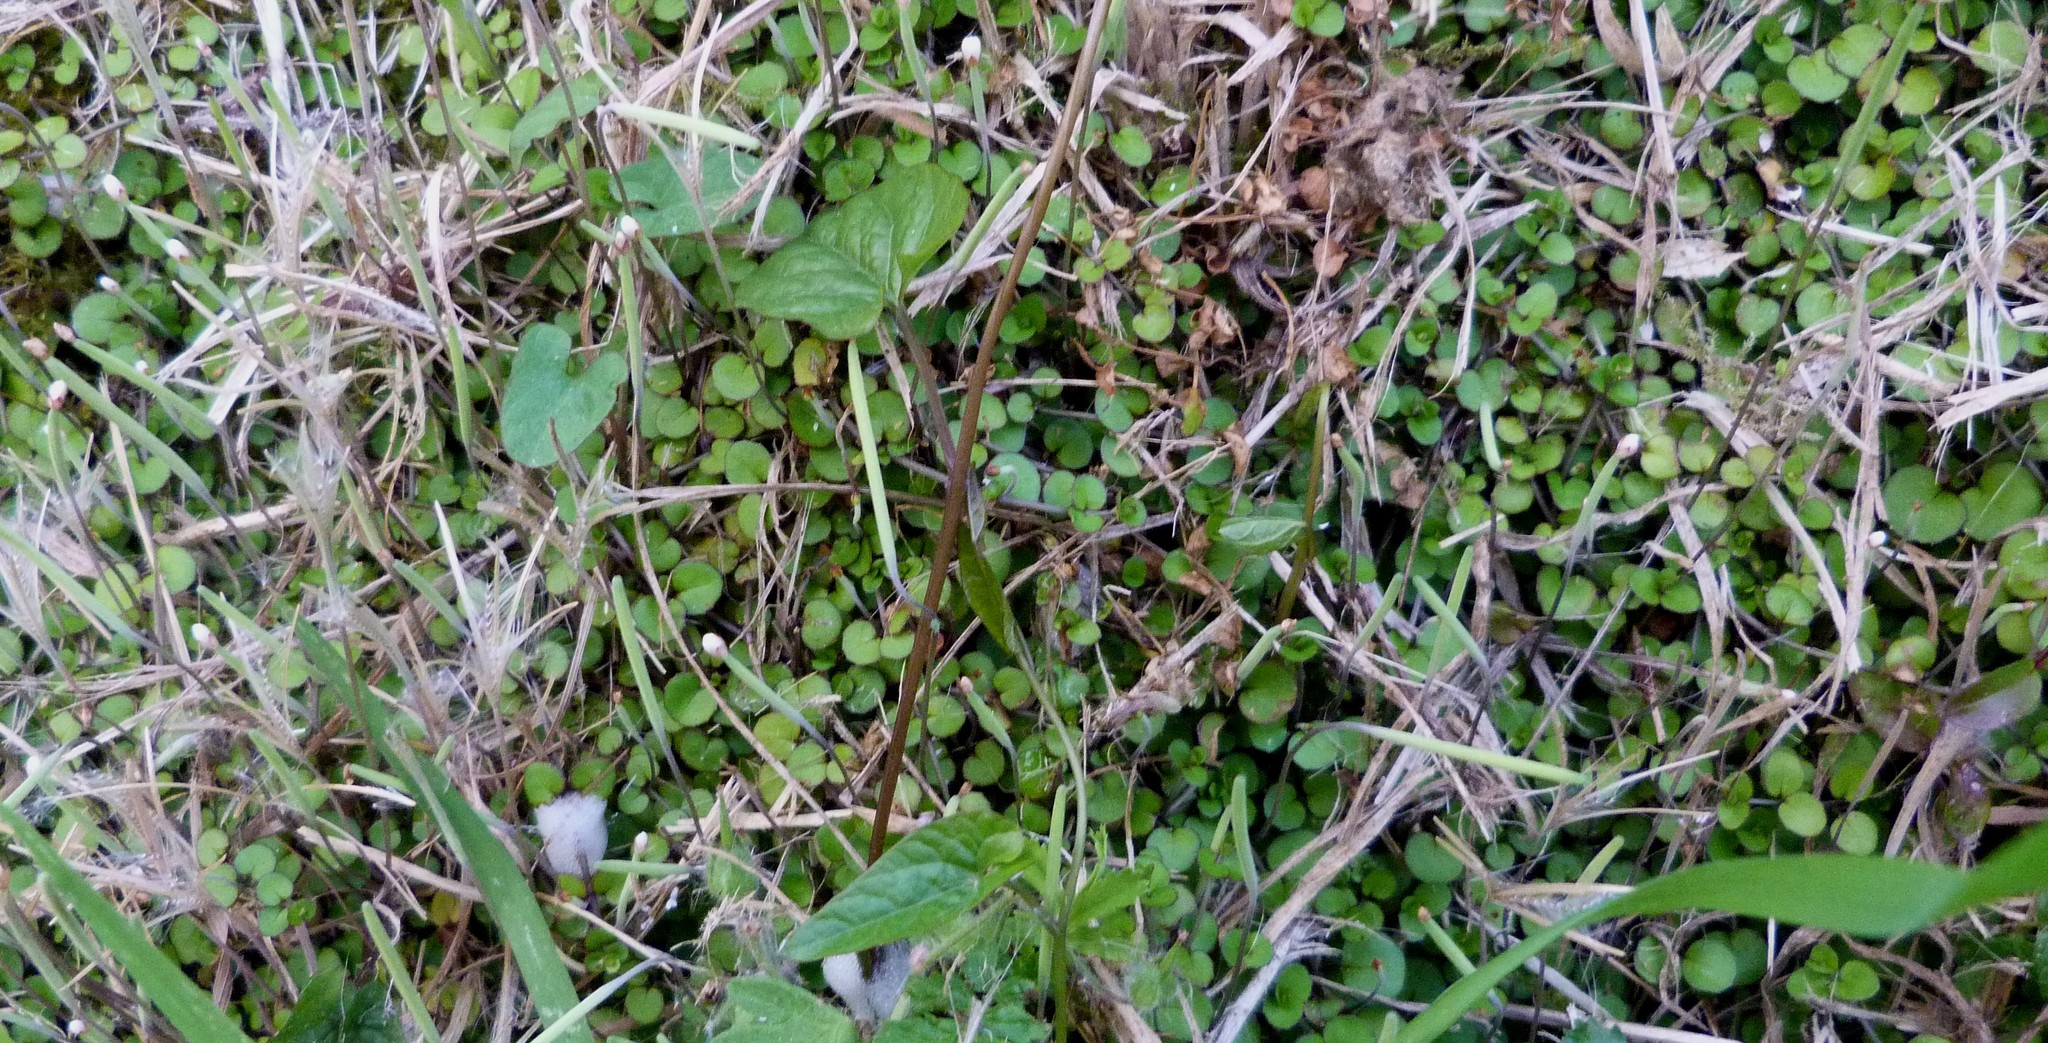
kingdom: Plantae
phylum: Tracheophyta
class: Magnoliopsida
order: Myrtales
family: Onagraceae
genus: Epilobium
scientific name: Epilobium nummularifolium
